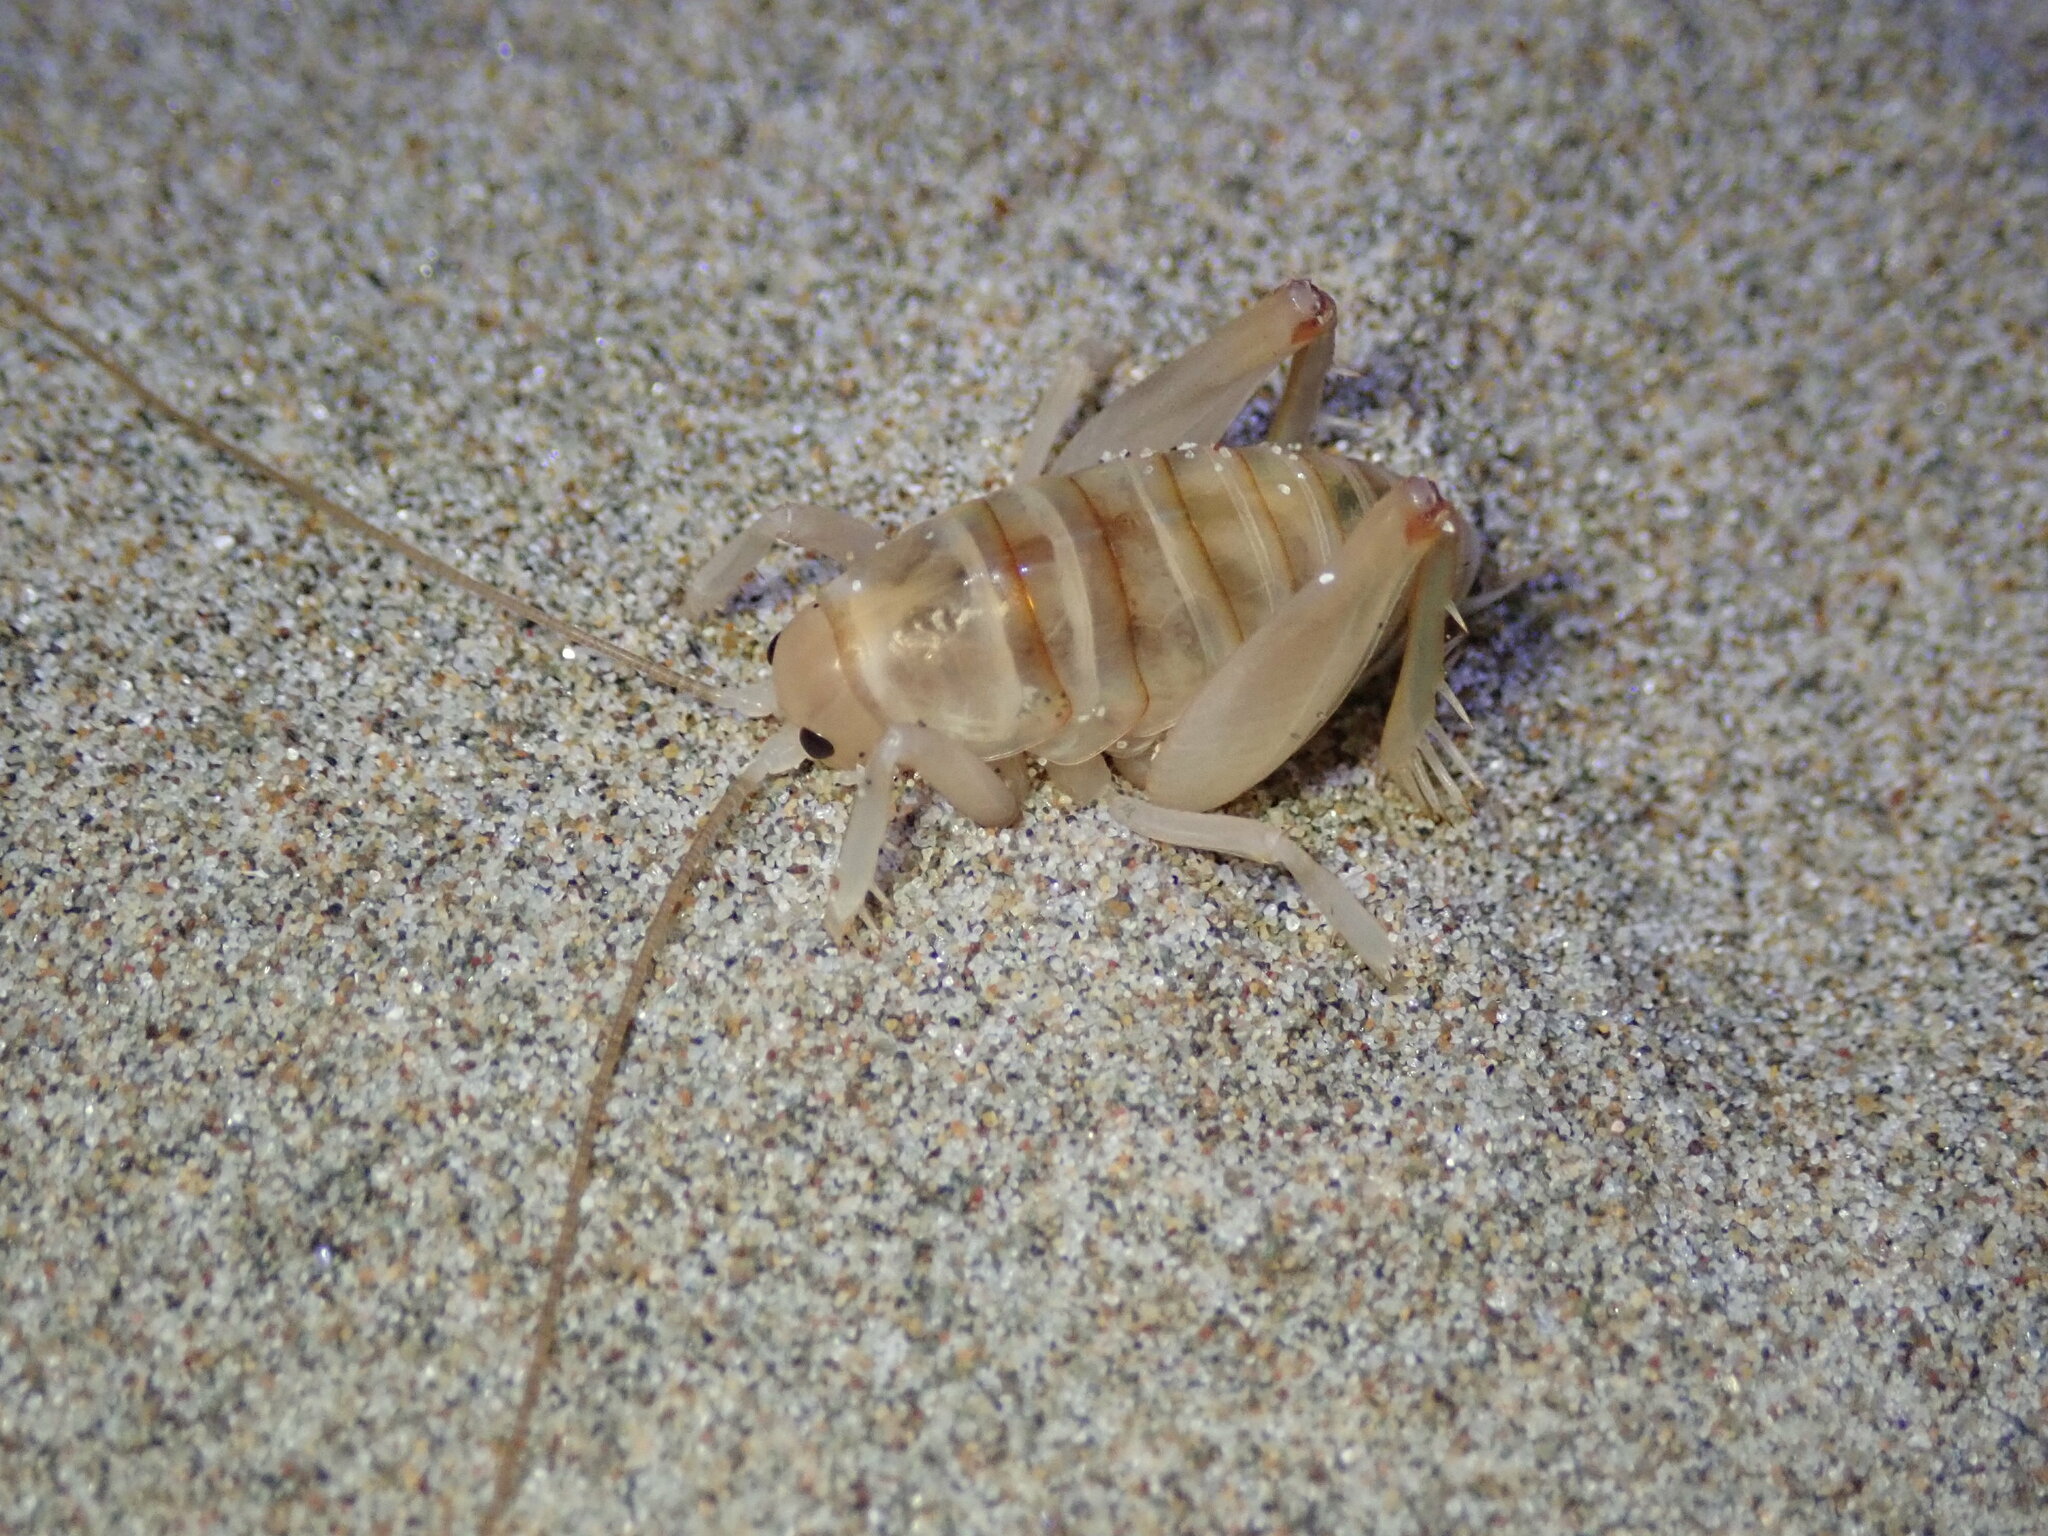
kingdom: Animalia
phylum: Arthropoda
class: Insecta
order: Orthoptera
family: Rhaphidophoridae
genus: Rhachocnemis
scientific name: Rhachocnemis validus
